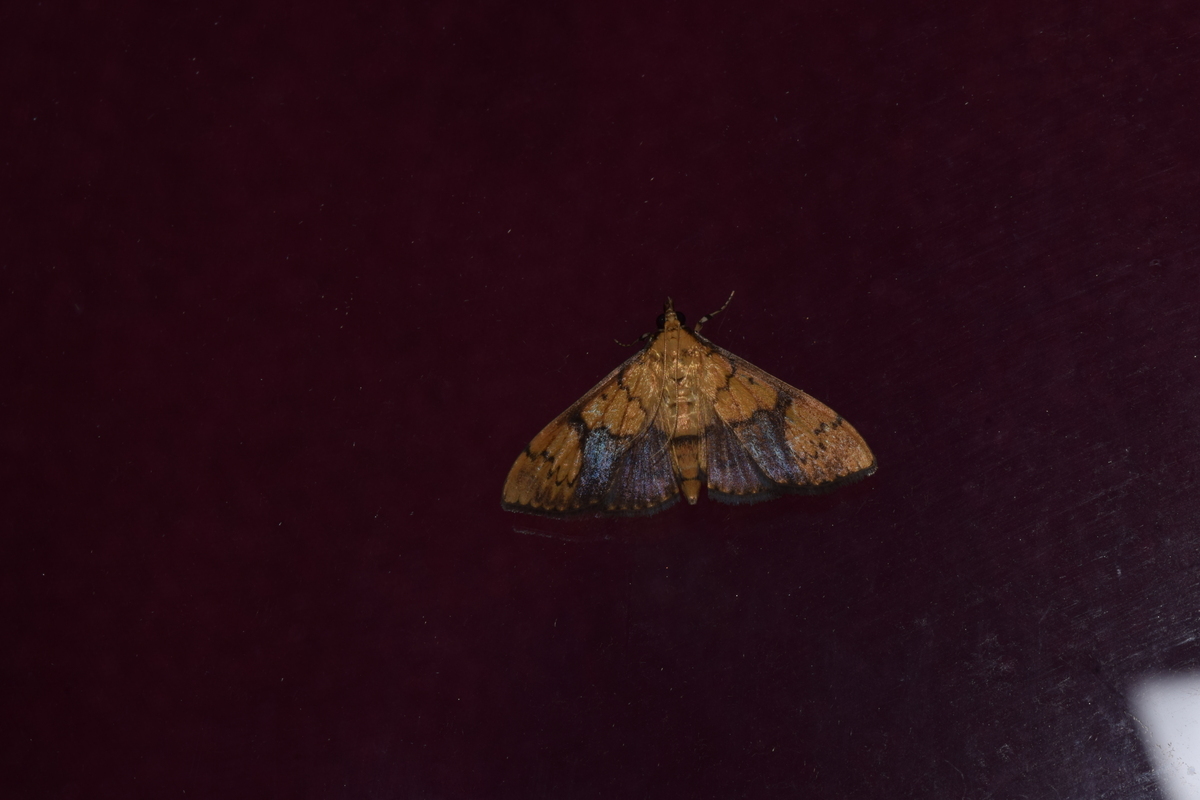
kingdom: Animalia
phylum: Arthropoda
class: Insecta
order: Lepidoptera
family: Crambidae
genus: Patania
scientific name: Patania
